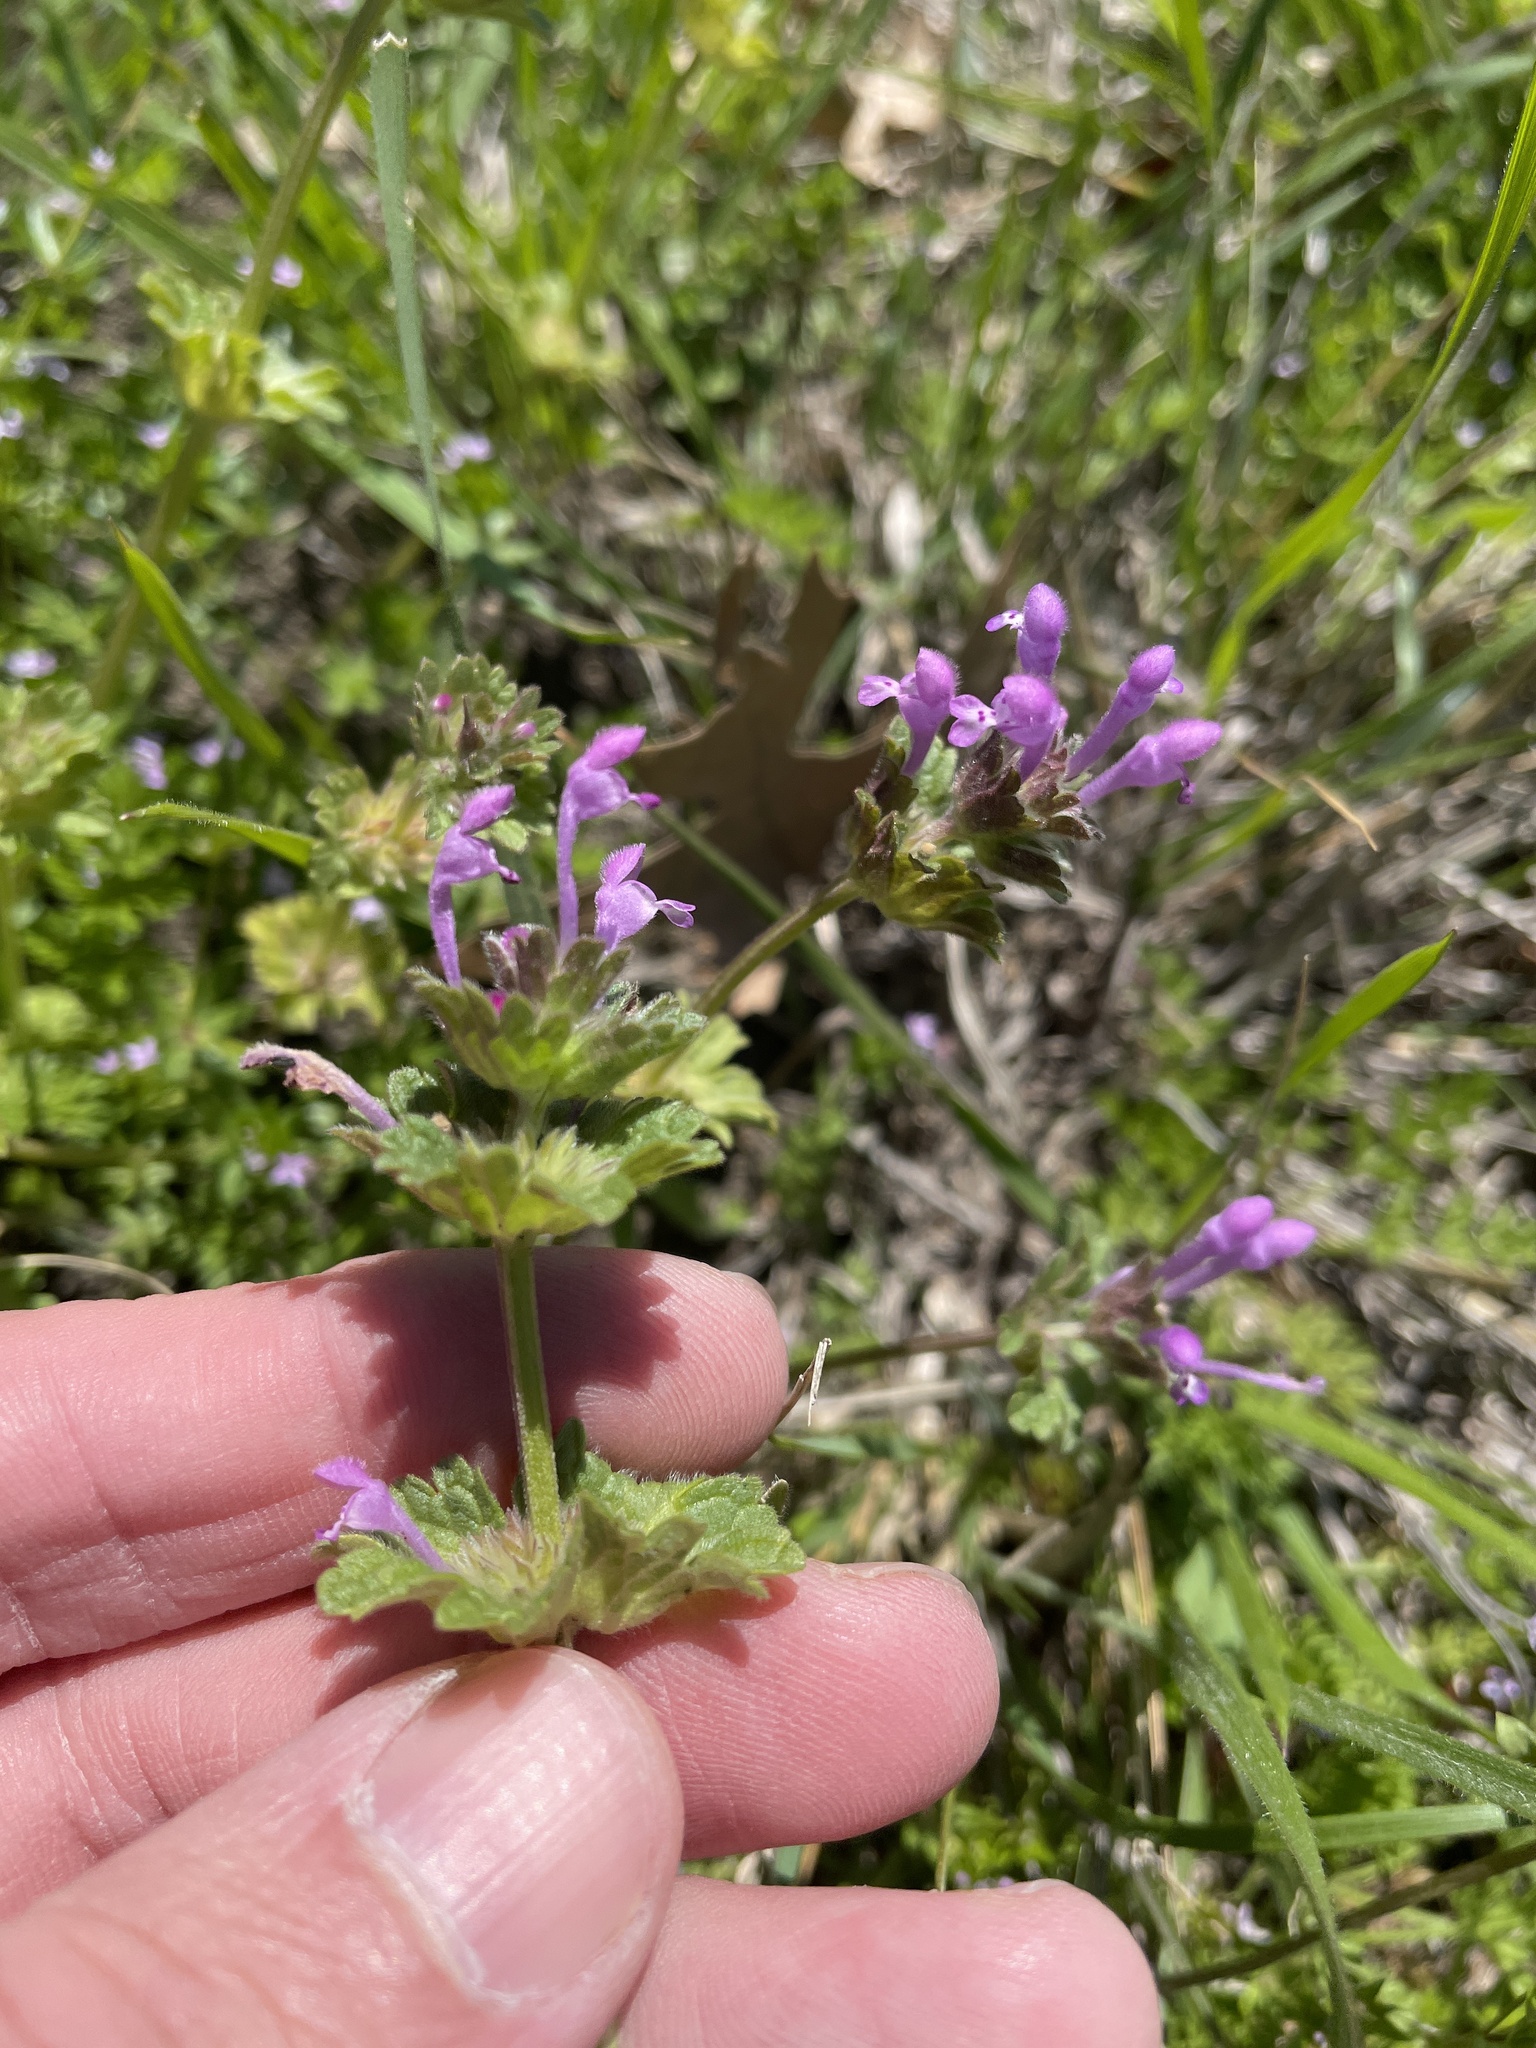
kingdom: Plantae
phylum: Tracheophyta
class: Magnoliopsida
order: Lamiales
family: Lamiaceae
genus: Lamium
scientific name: Lamium amplexicaule
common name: Henbit dead-nettle
